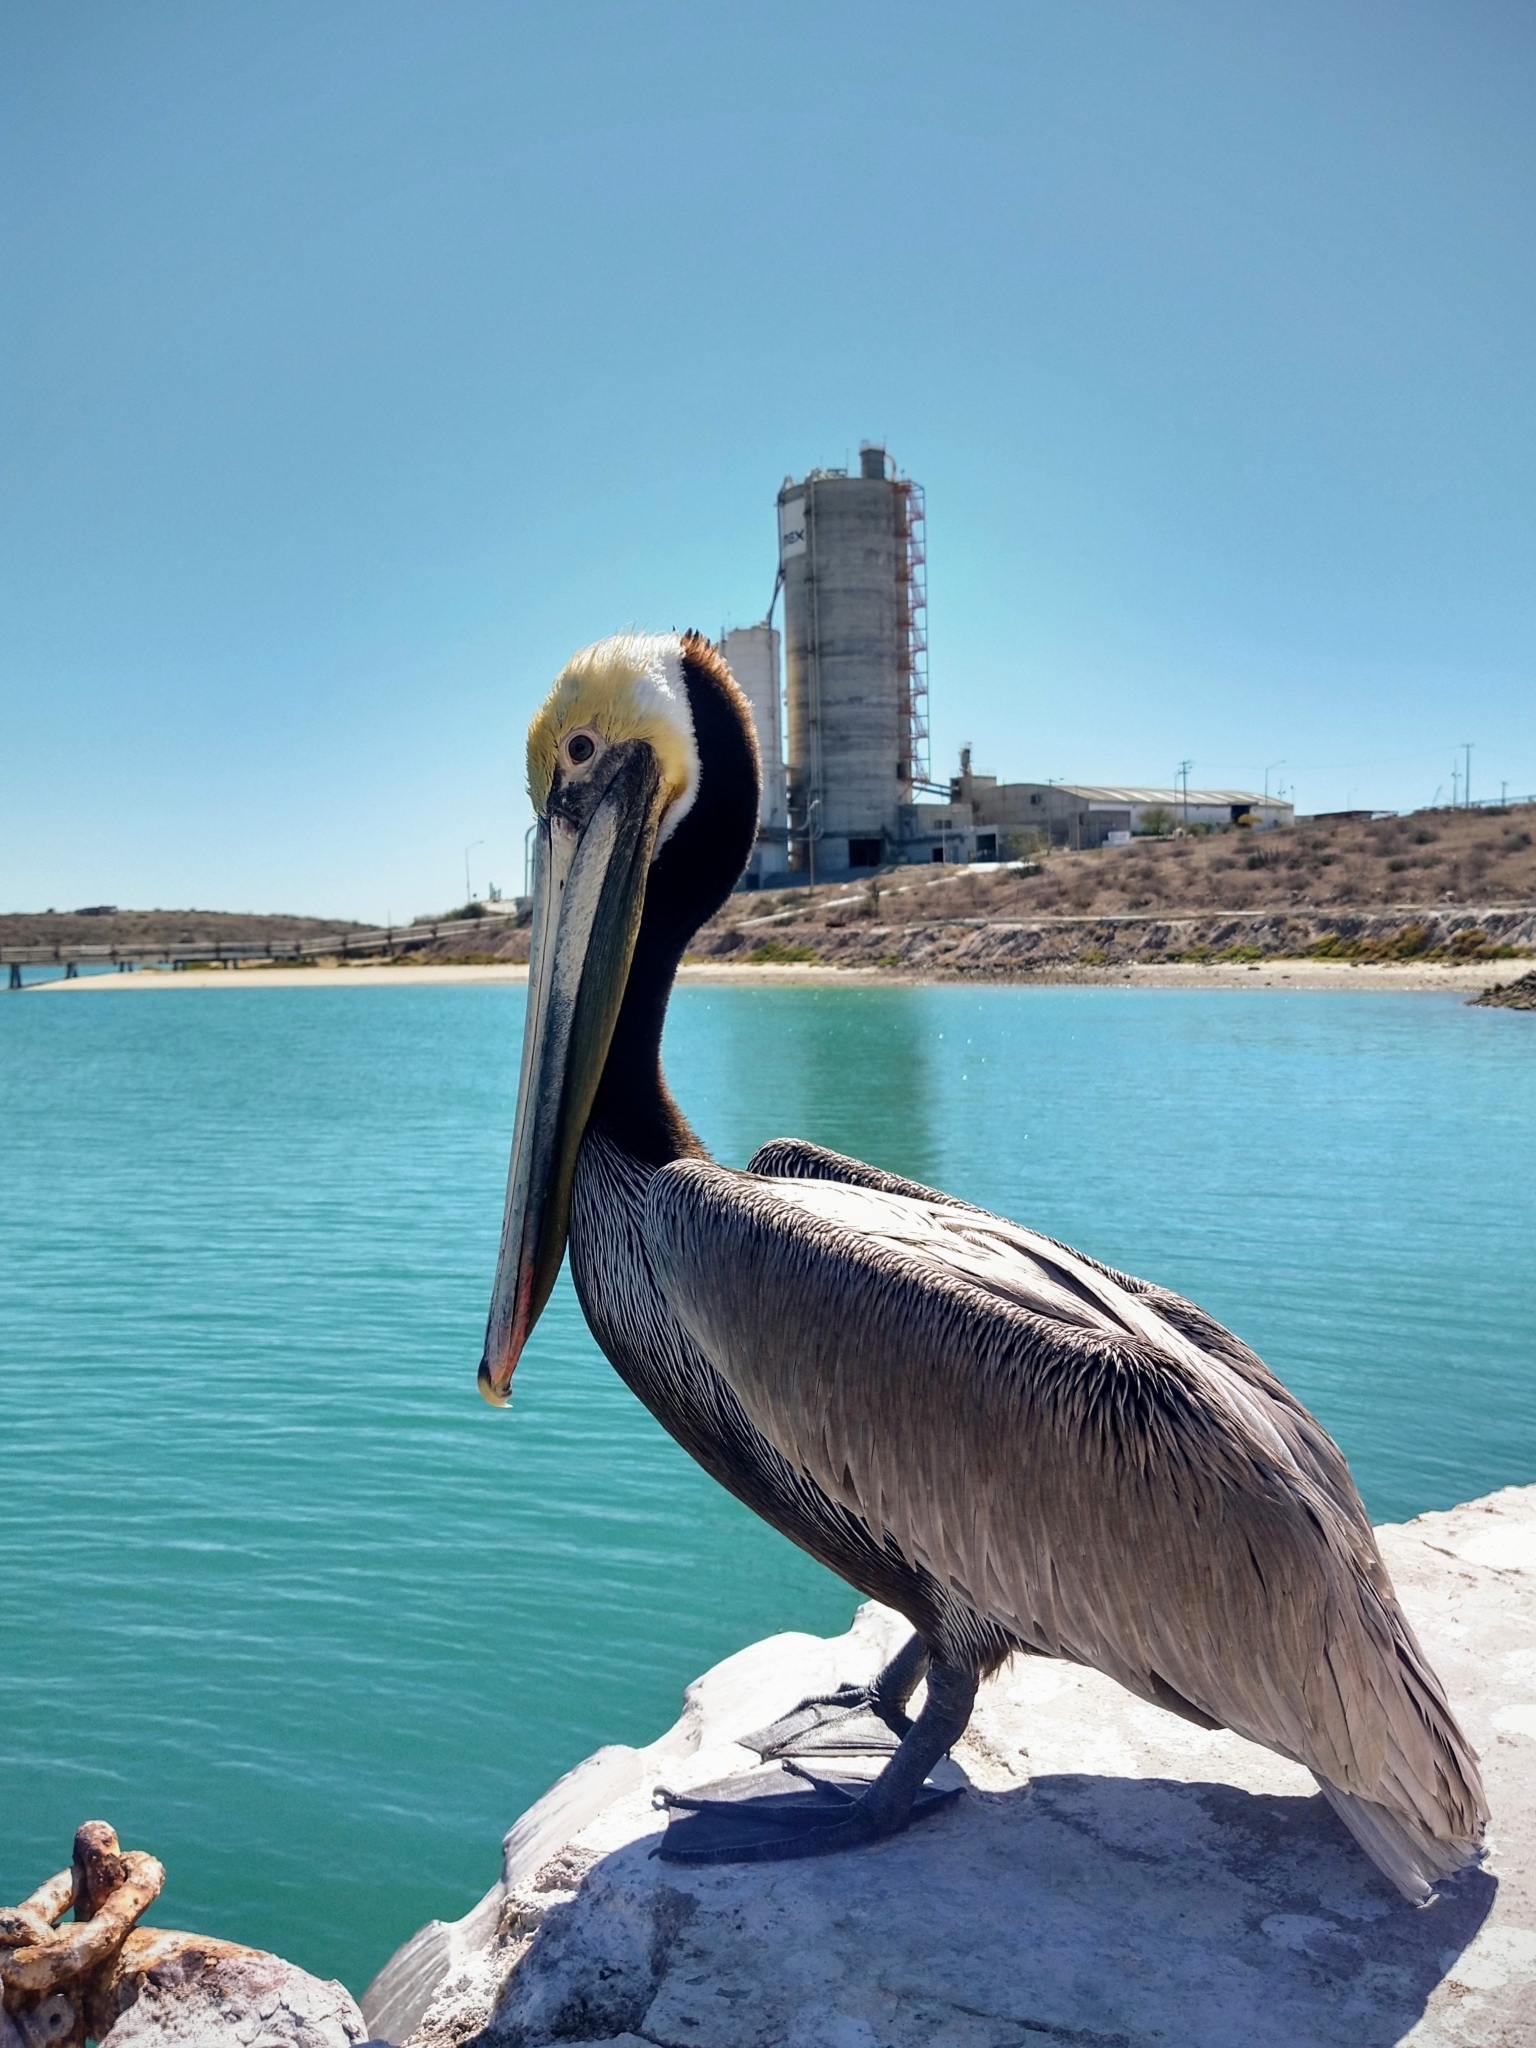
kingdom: Animalia
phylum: Chordata
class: Aves
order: Pelecaniformes
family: Pelecanidae
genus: Pelecanus
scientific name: Pelecanus occidentalis
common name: Brown pelican
